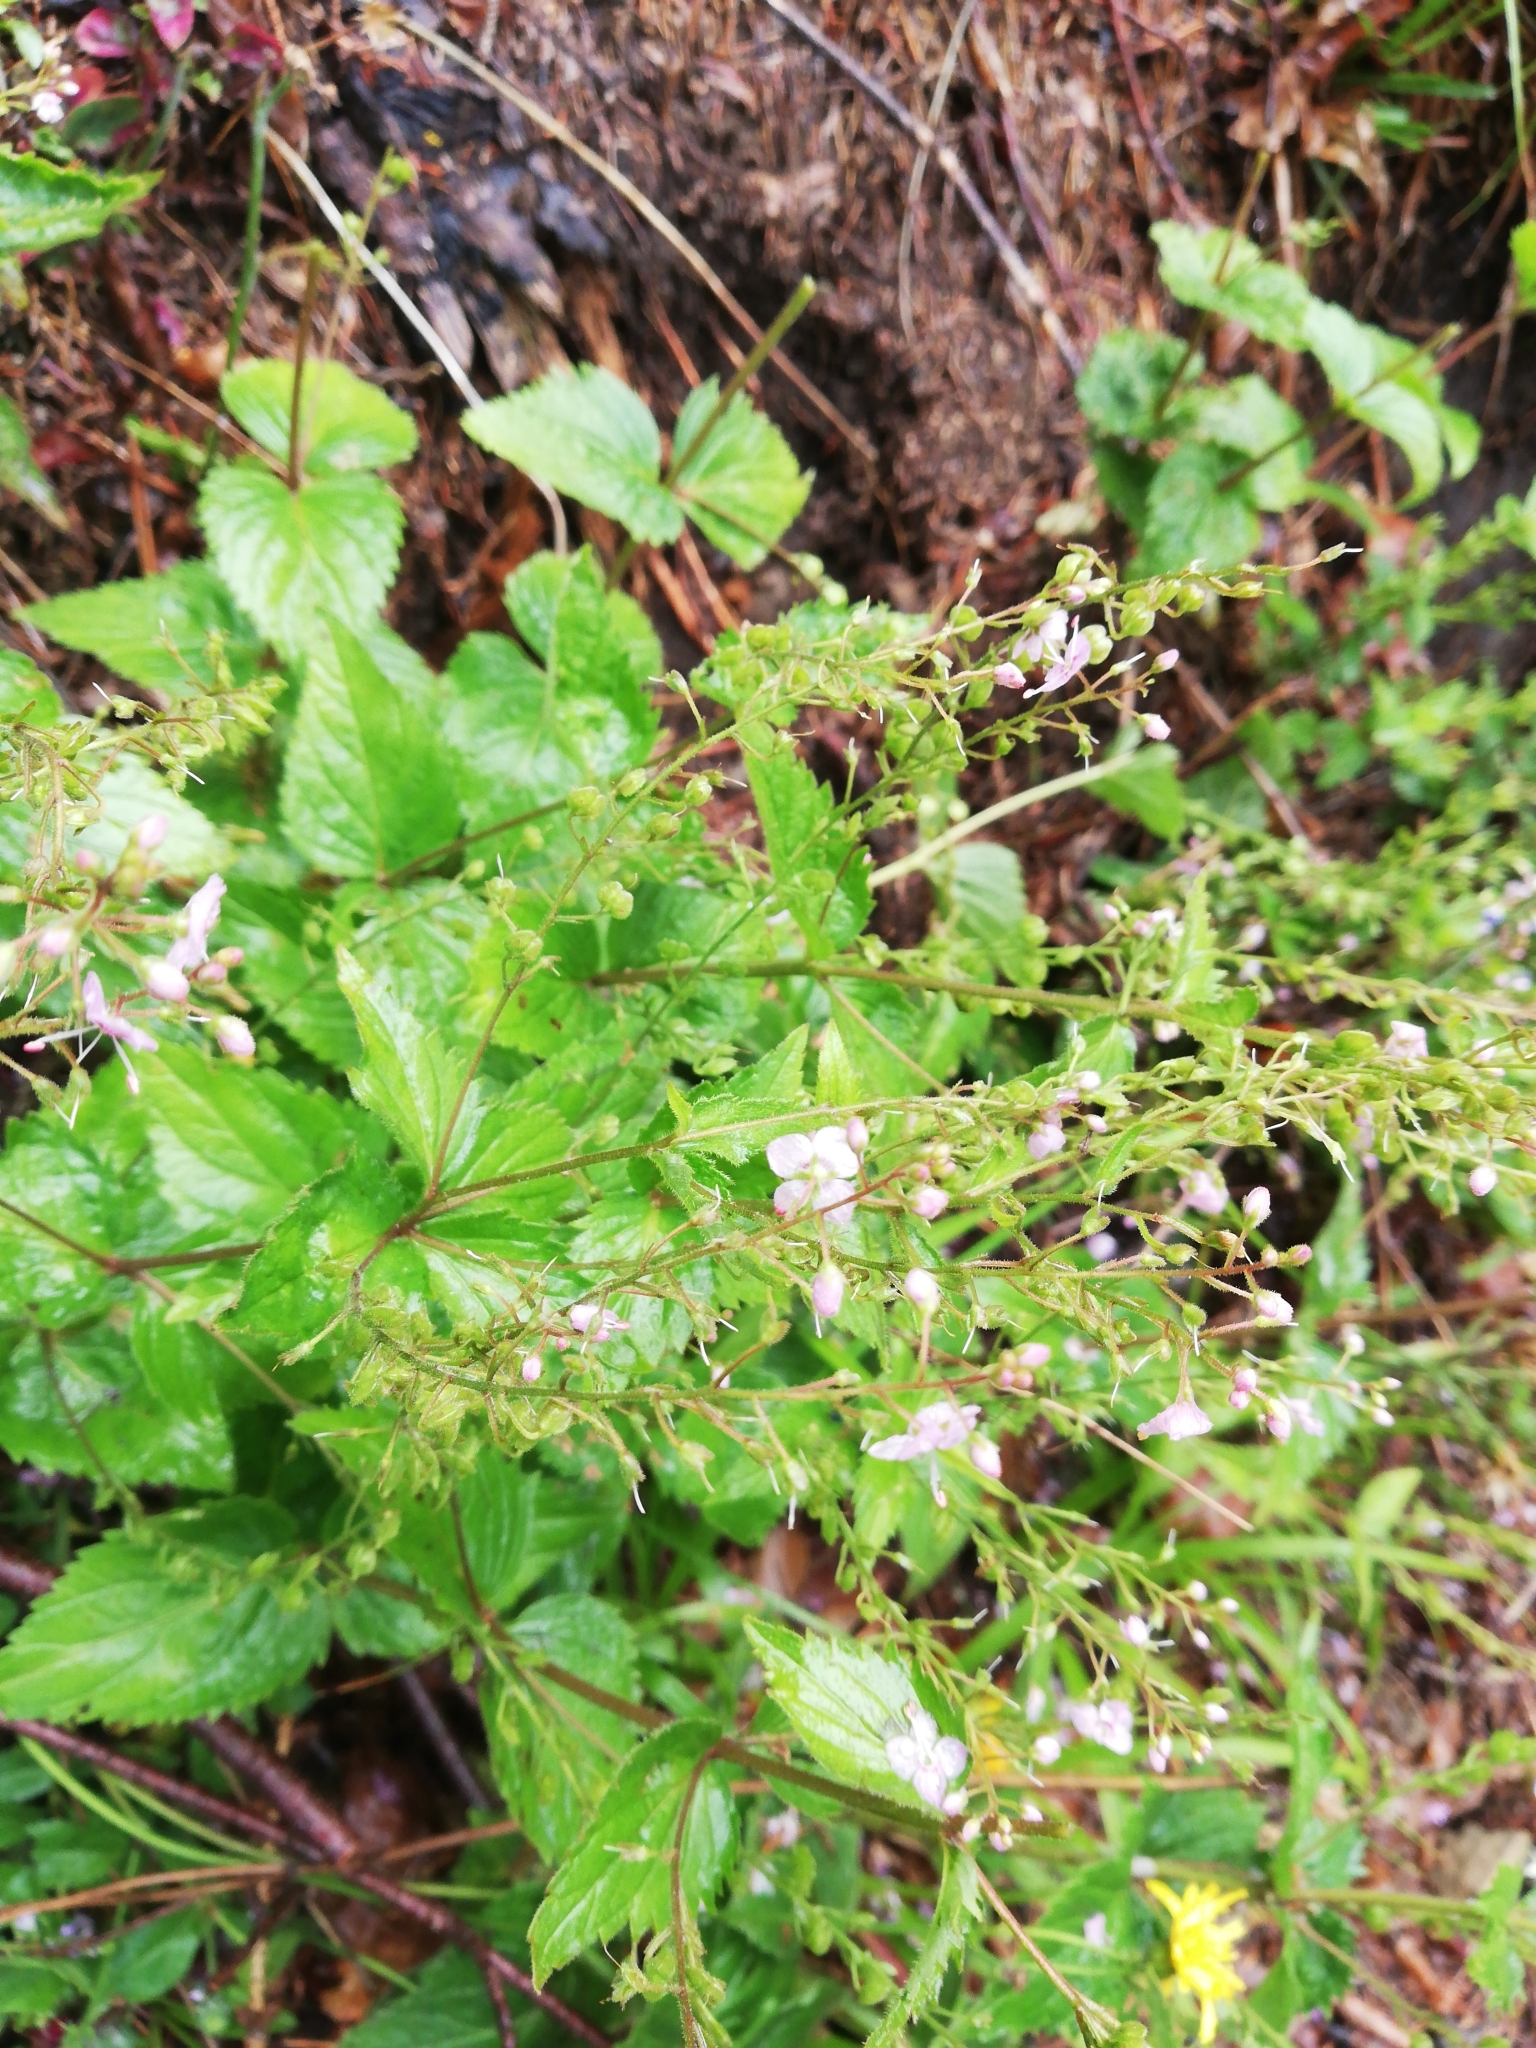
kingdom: Plantae
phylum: Tracheophyta
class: Magnoliopsida
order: Lamiales
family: Plantaginaceae
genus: Veronica
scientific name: Veronica urticifolia
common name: Nettle-leaf speedwell
